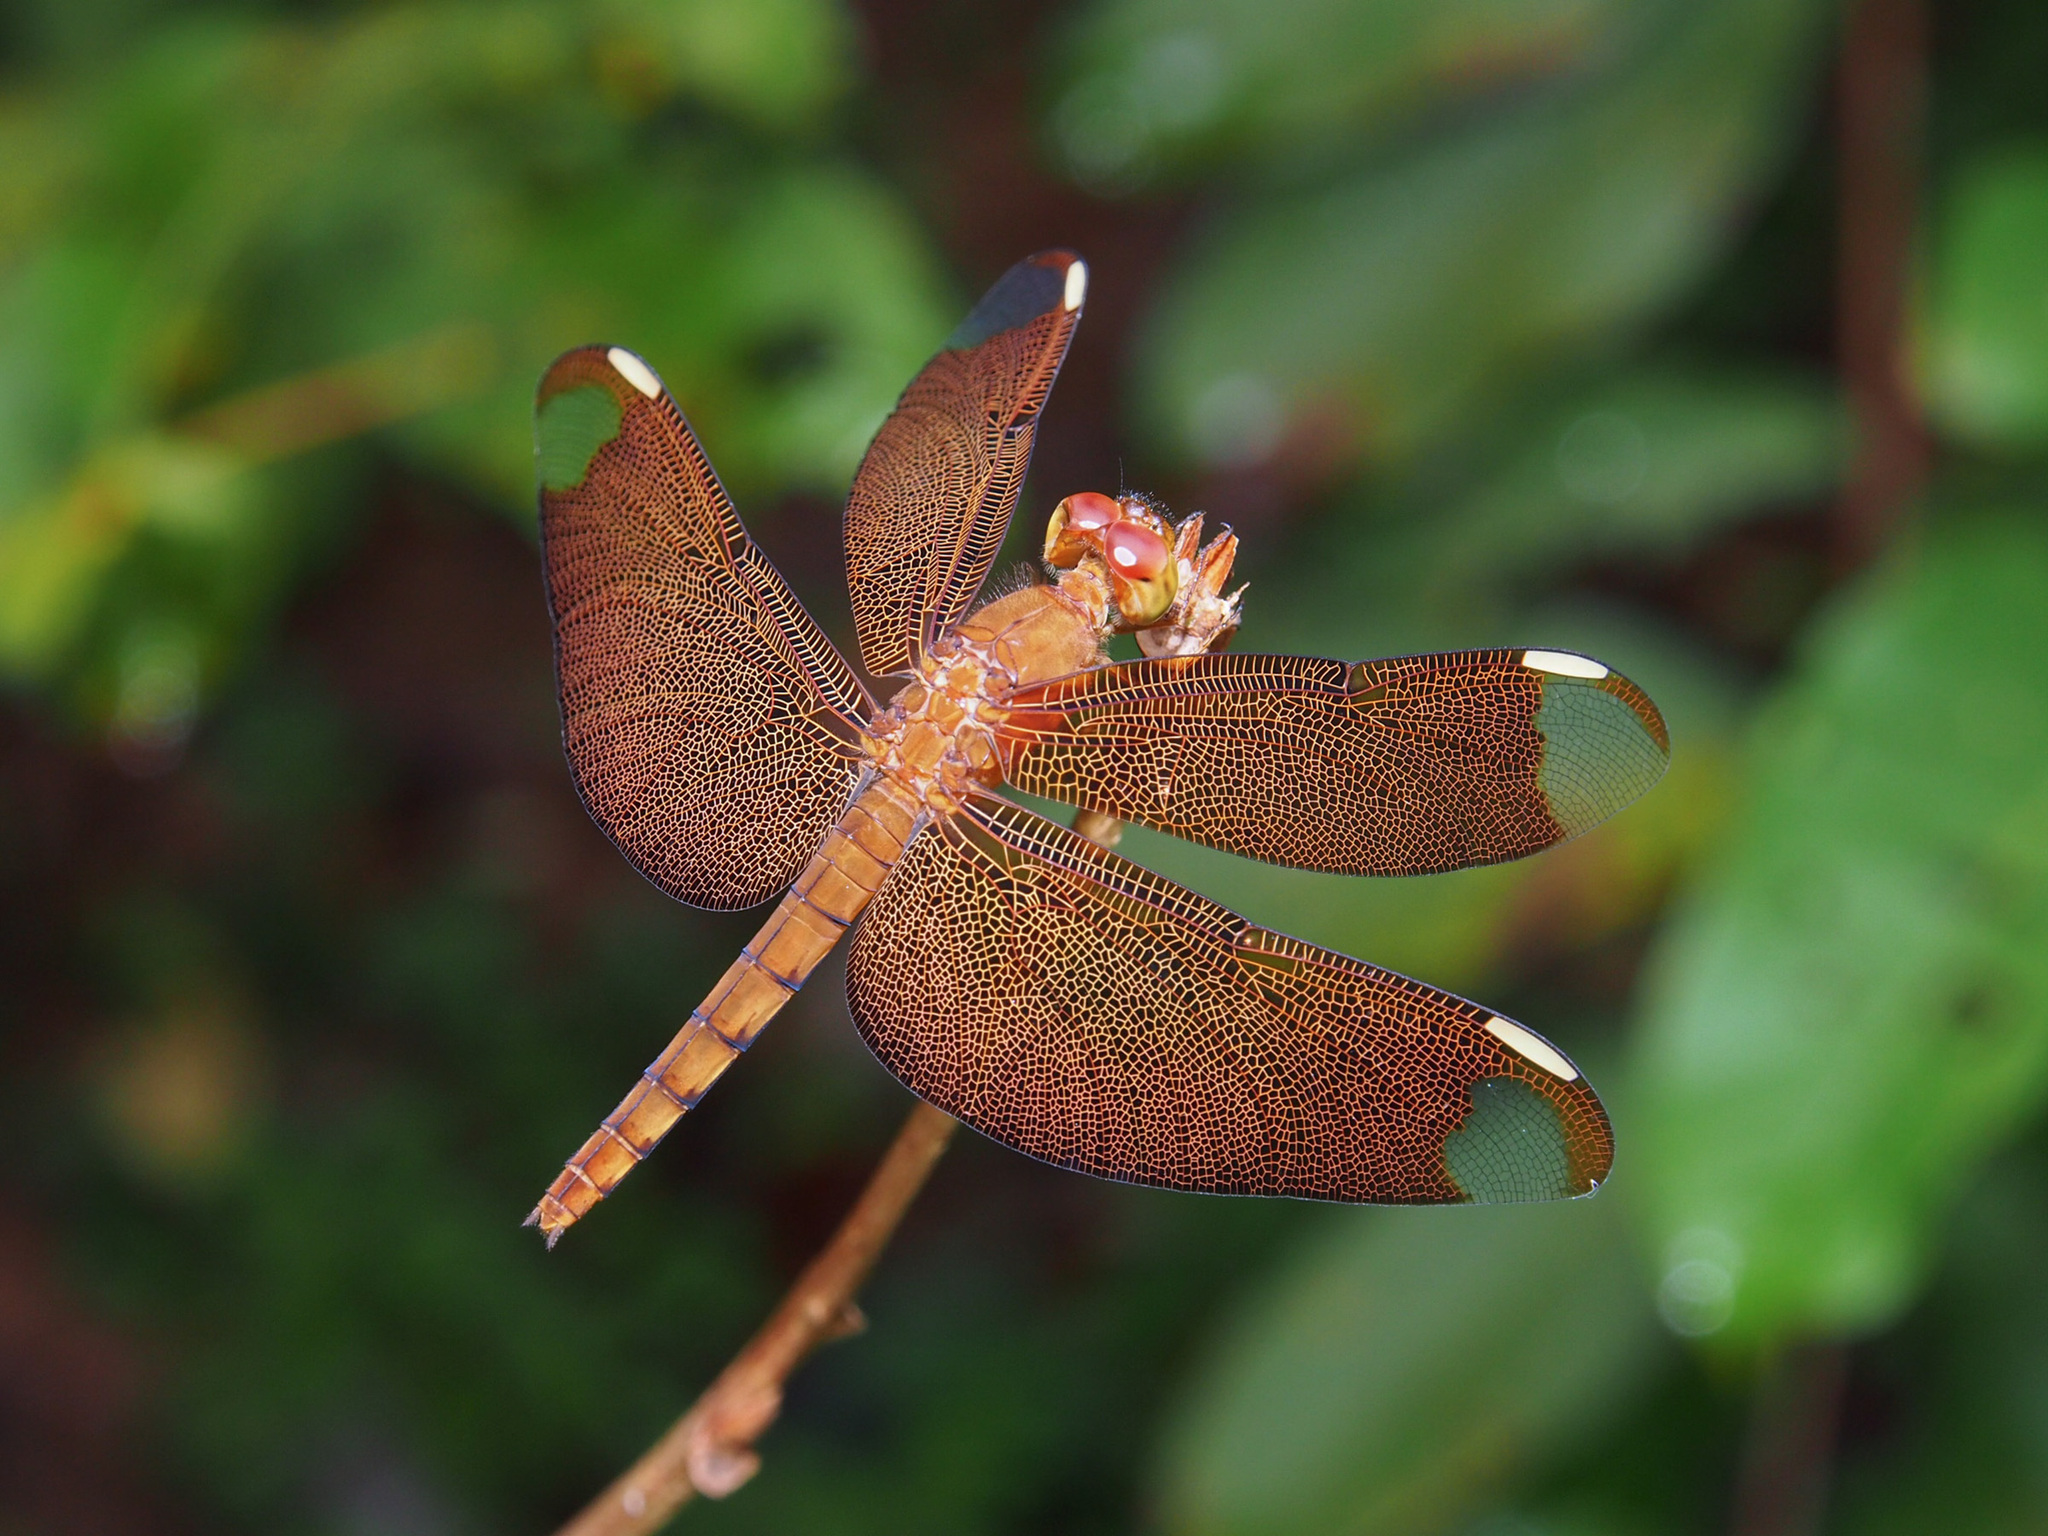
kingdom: Animalia
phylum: Arthropoda
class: Insecta
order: Odonata
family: Libellulidae
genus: Neurothemis
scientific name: Neurothemis fulvia
